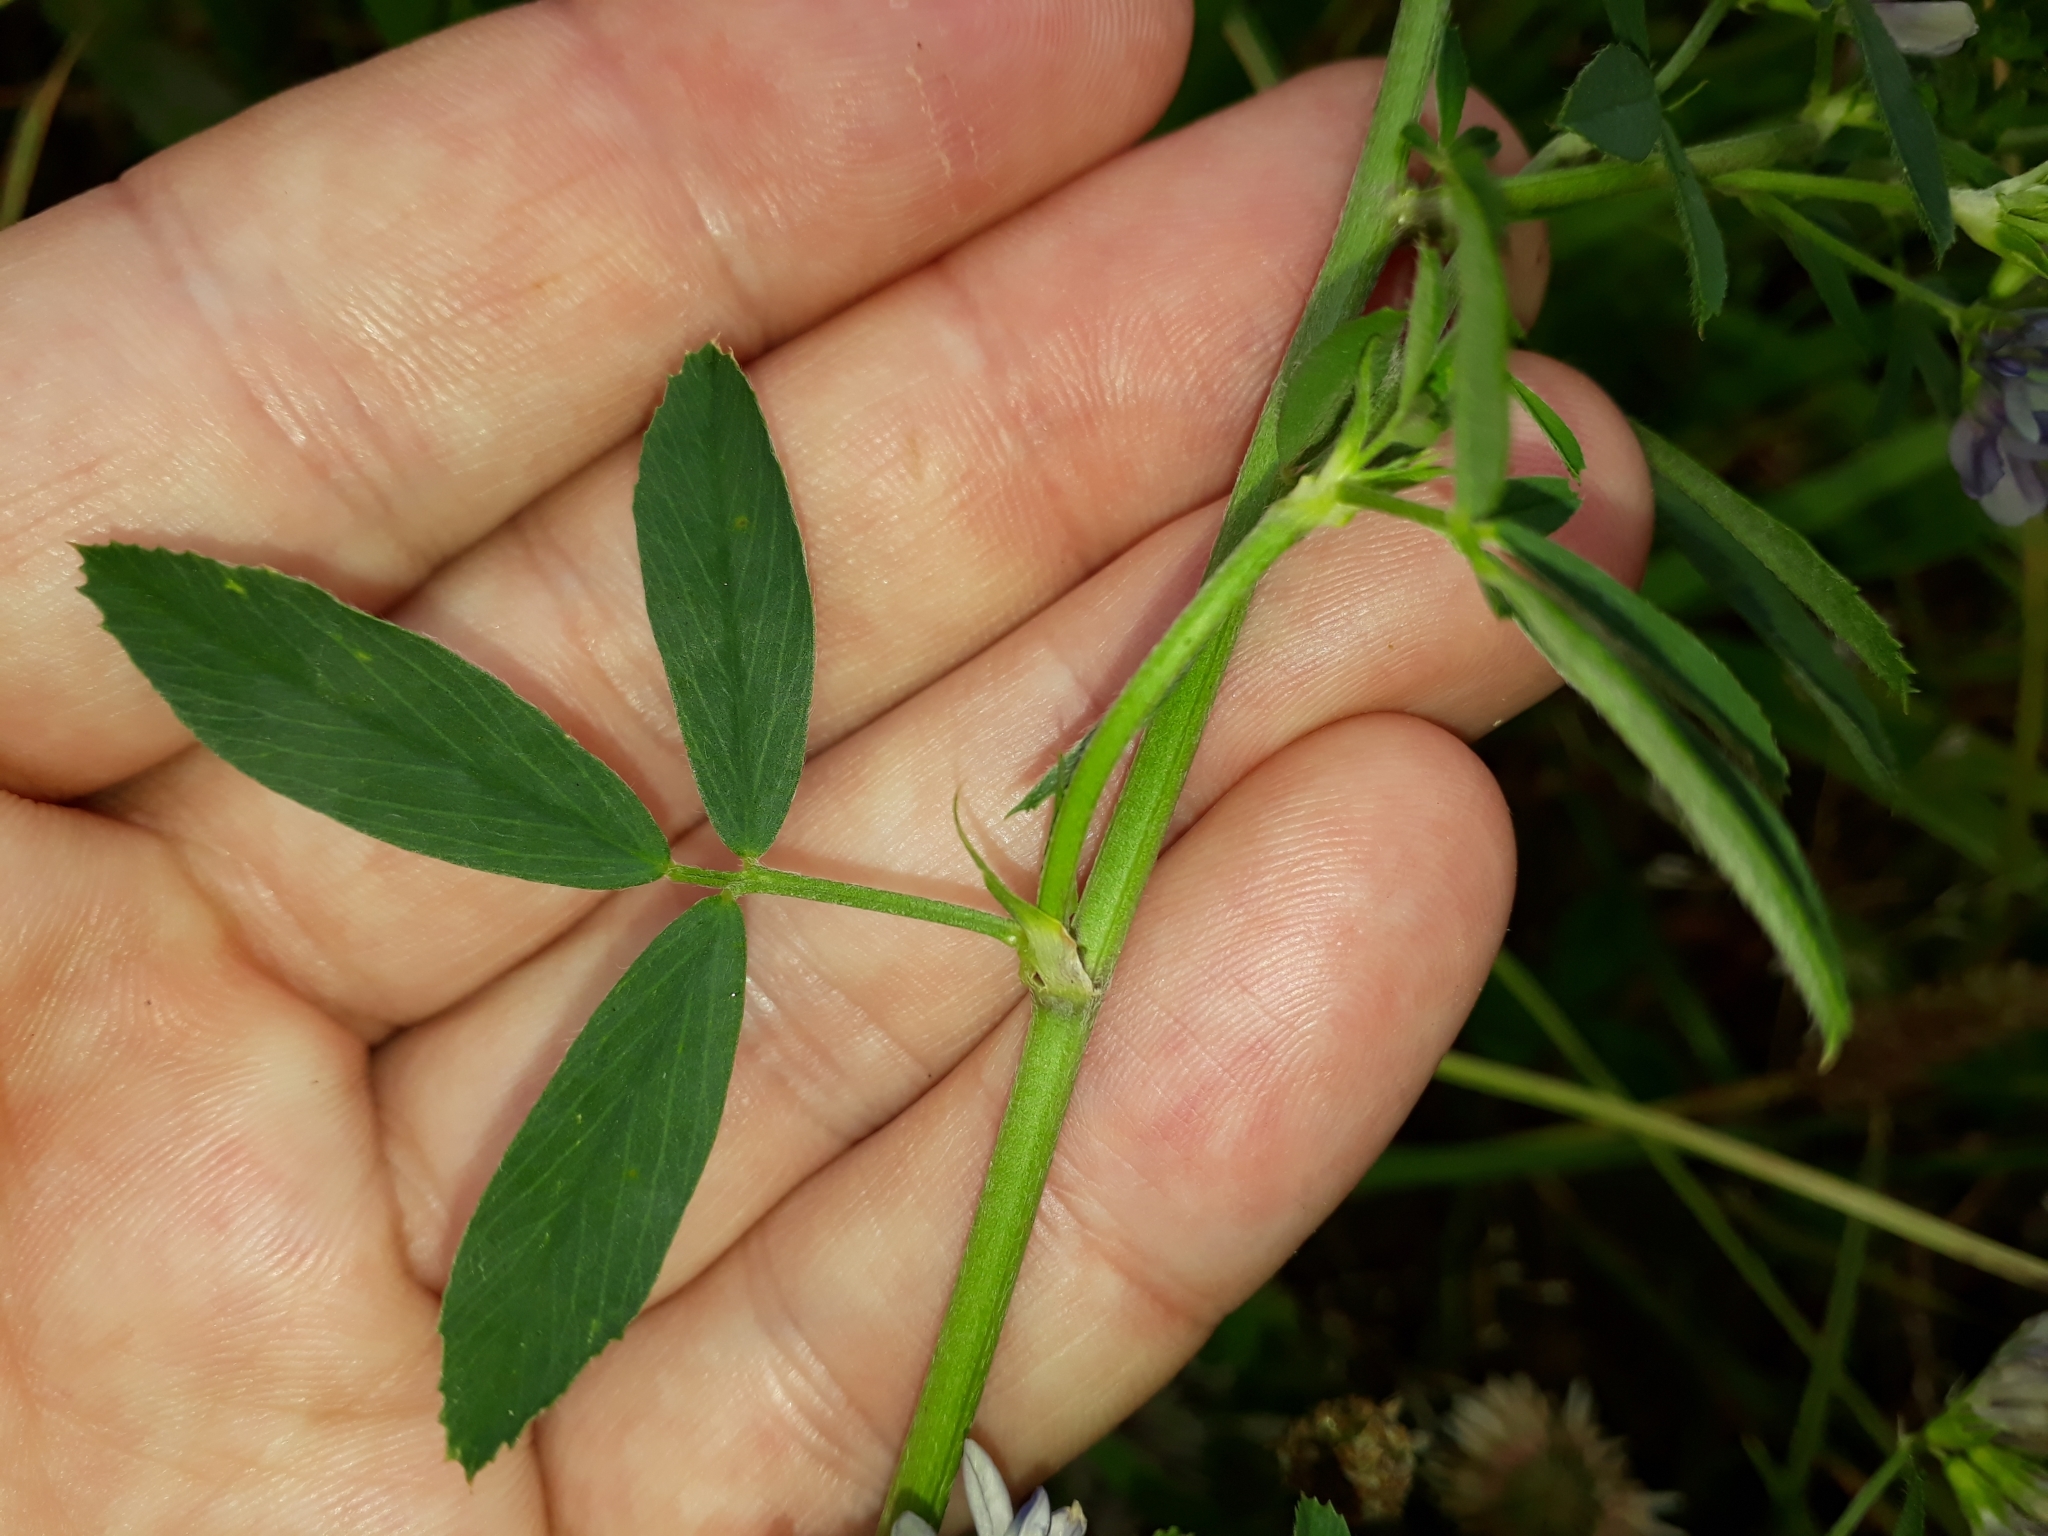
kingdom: Plantae
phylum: Tracheophyta
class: Magnoliopsida
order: Fabales
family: Fabaceae
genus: Medicago
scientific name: Medicago sativa
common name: Alfalfa
